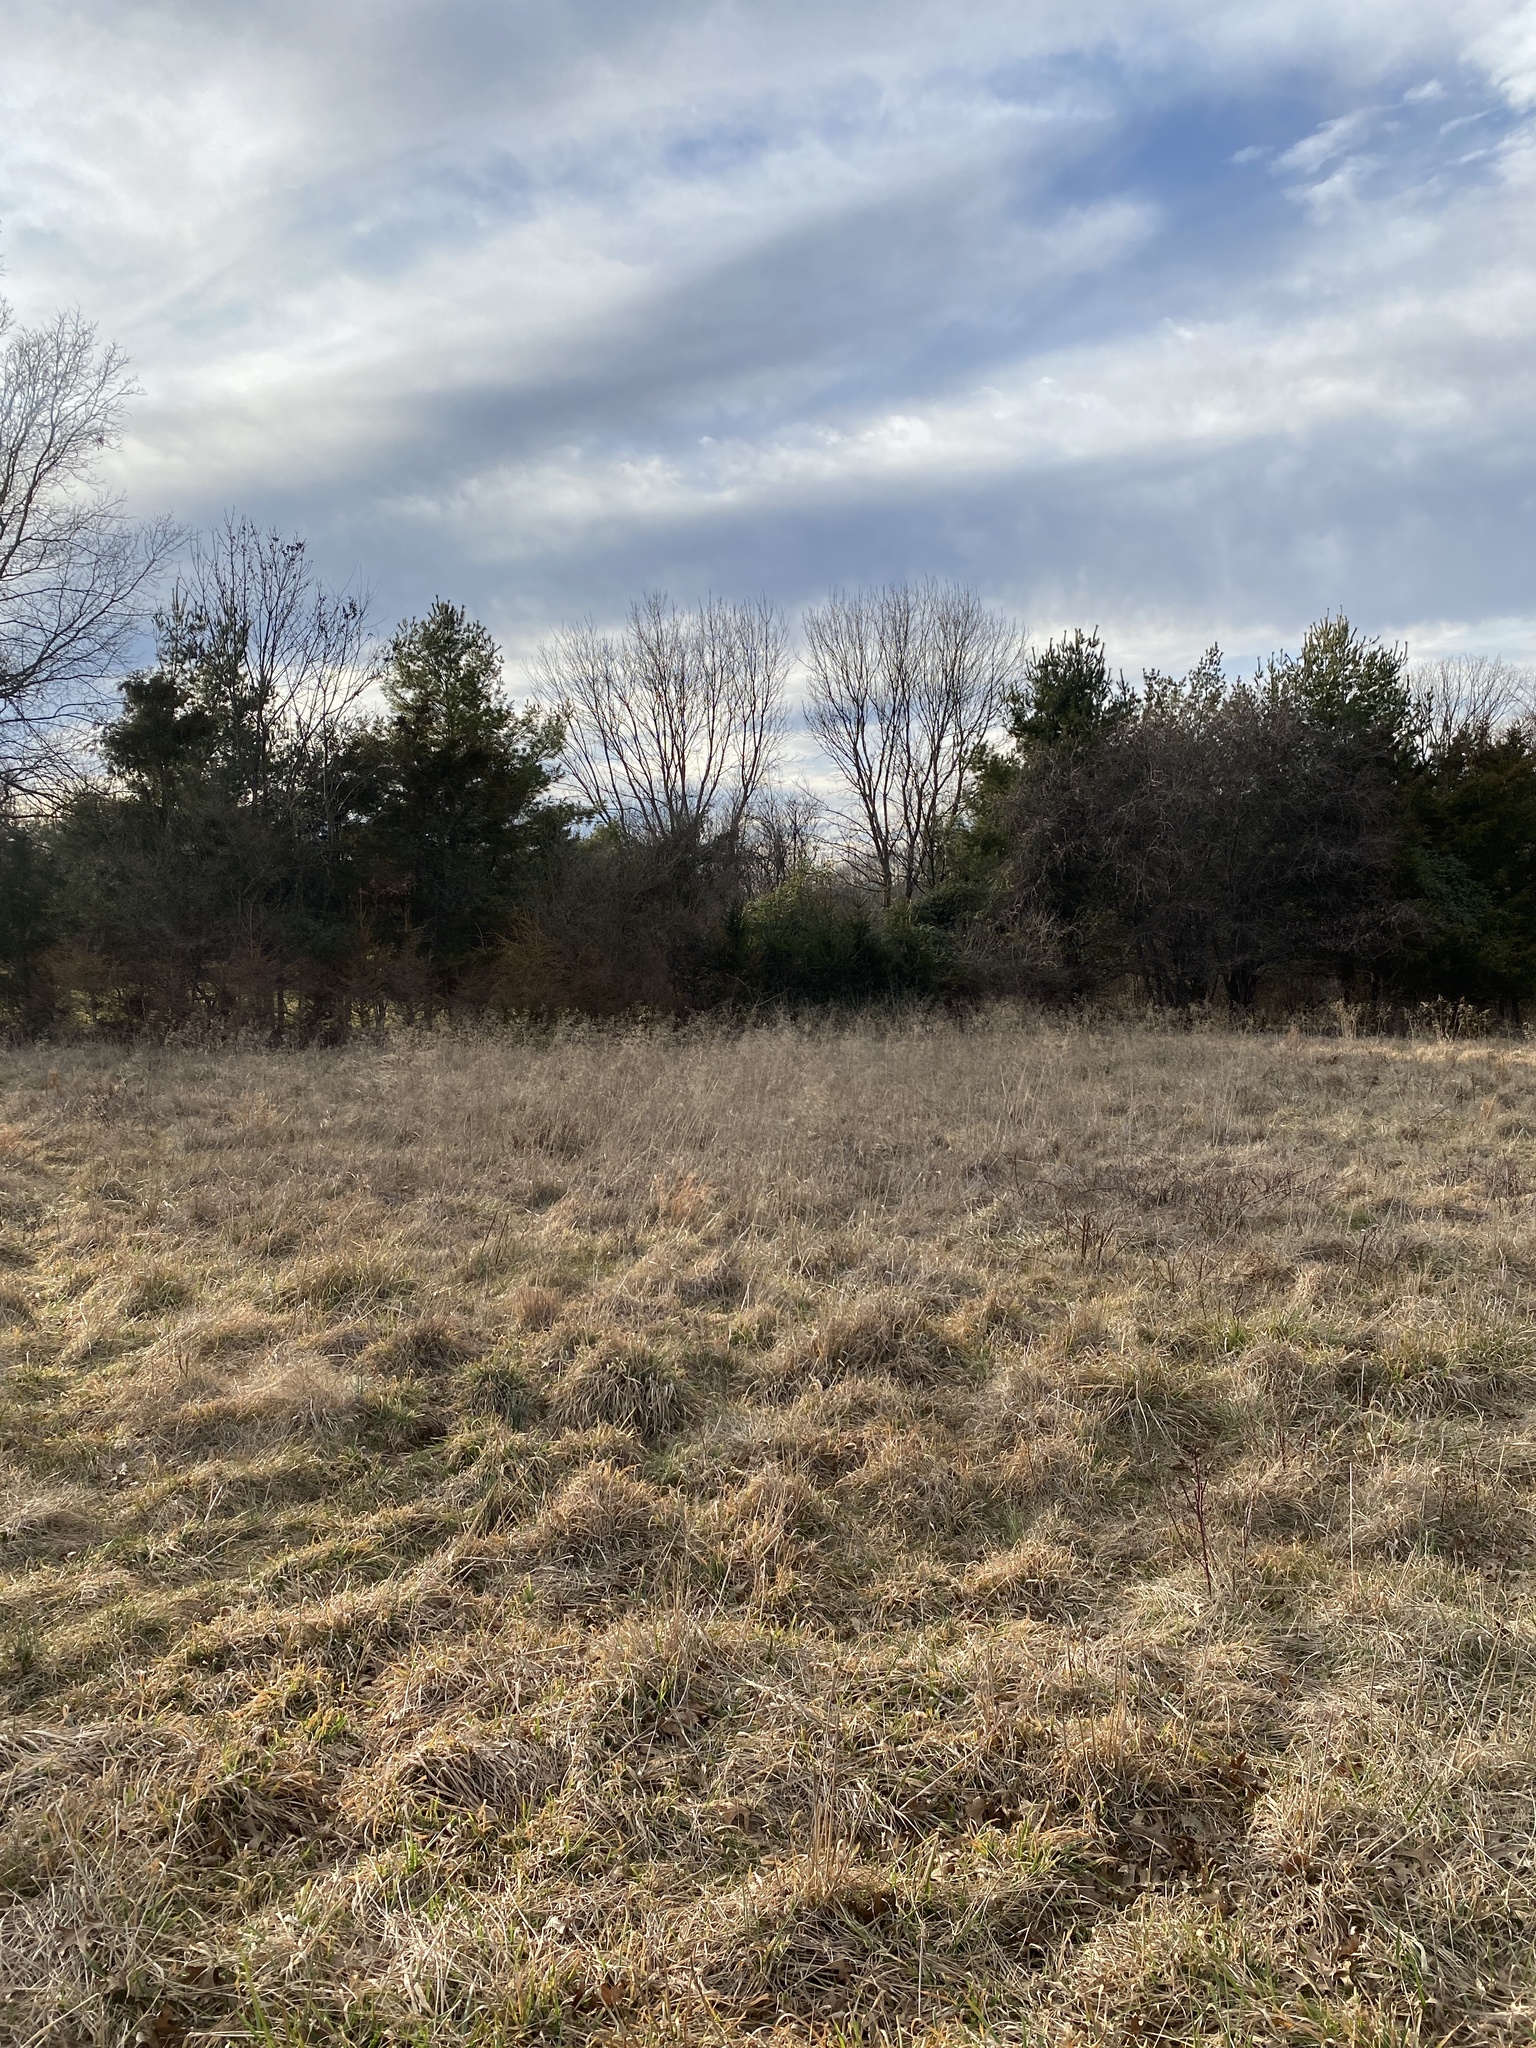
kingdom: Plantae
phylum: Tracheophyta
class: Liliopsida
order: Poales
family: Poaceae
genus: Tridens
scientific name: Tridens flavus
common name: Purpletop
